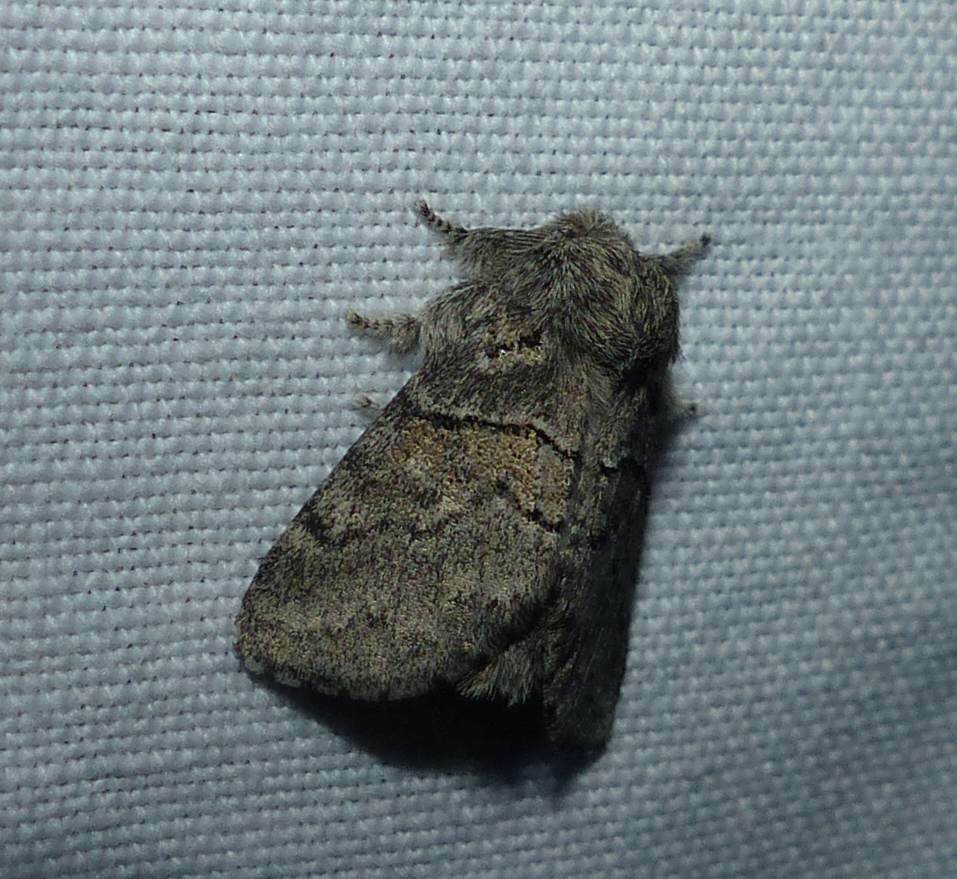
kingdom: Animalia
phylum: Arthropoda
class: Insecta
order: Lepidoptera
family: Notodontidae
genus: Gluphisia
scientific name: Gluphisia septentrionis
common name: Common gluphisia
